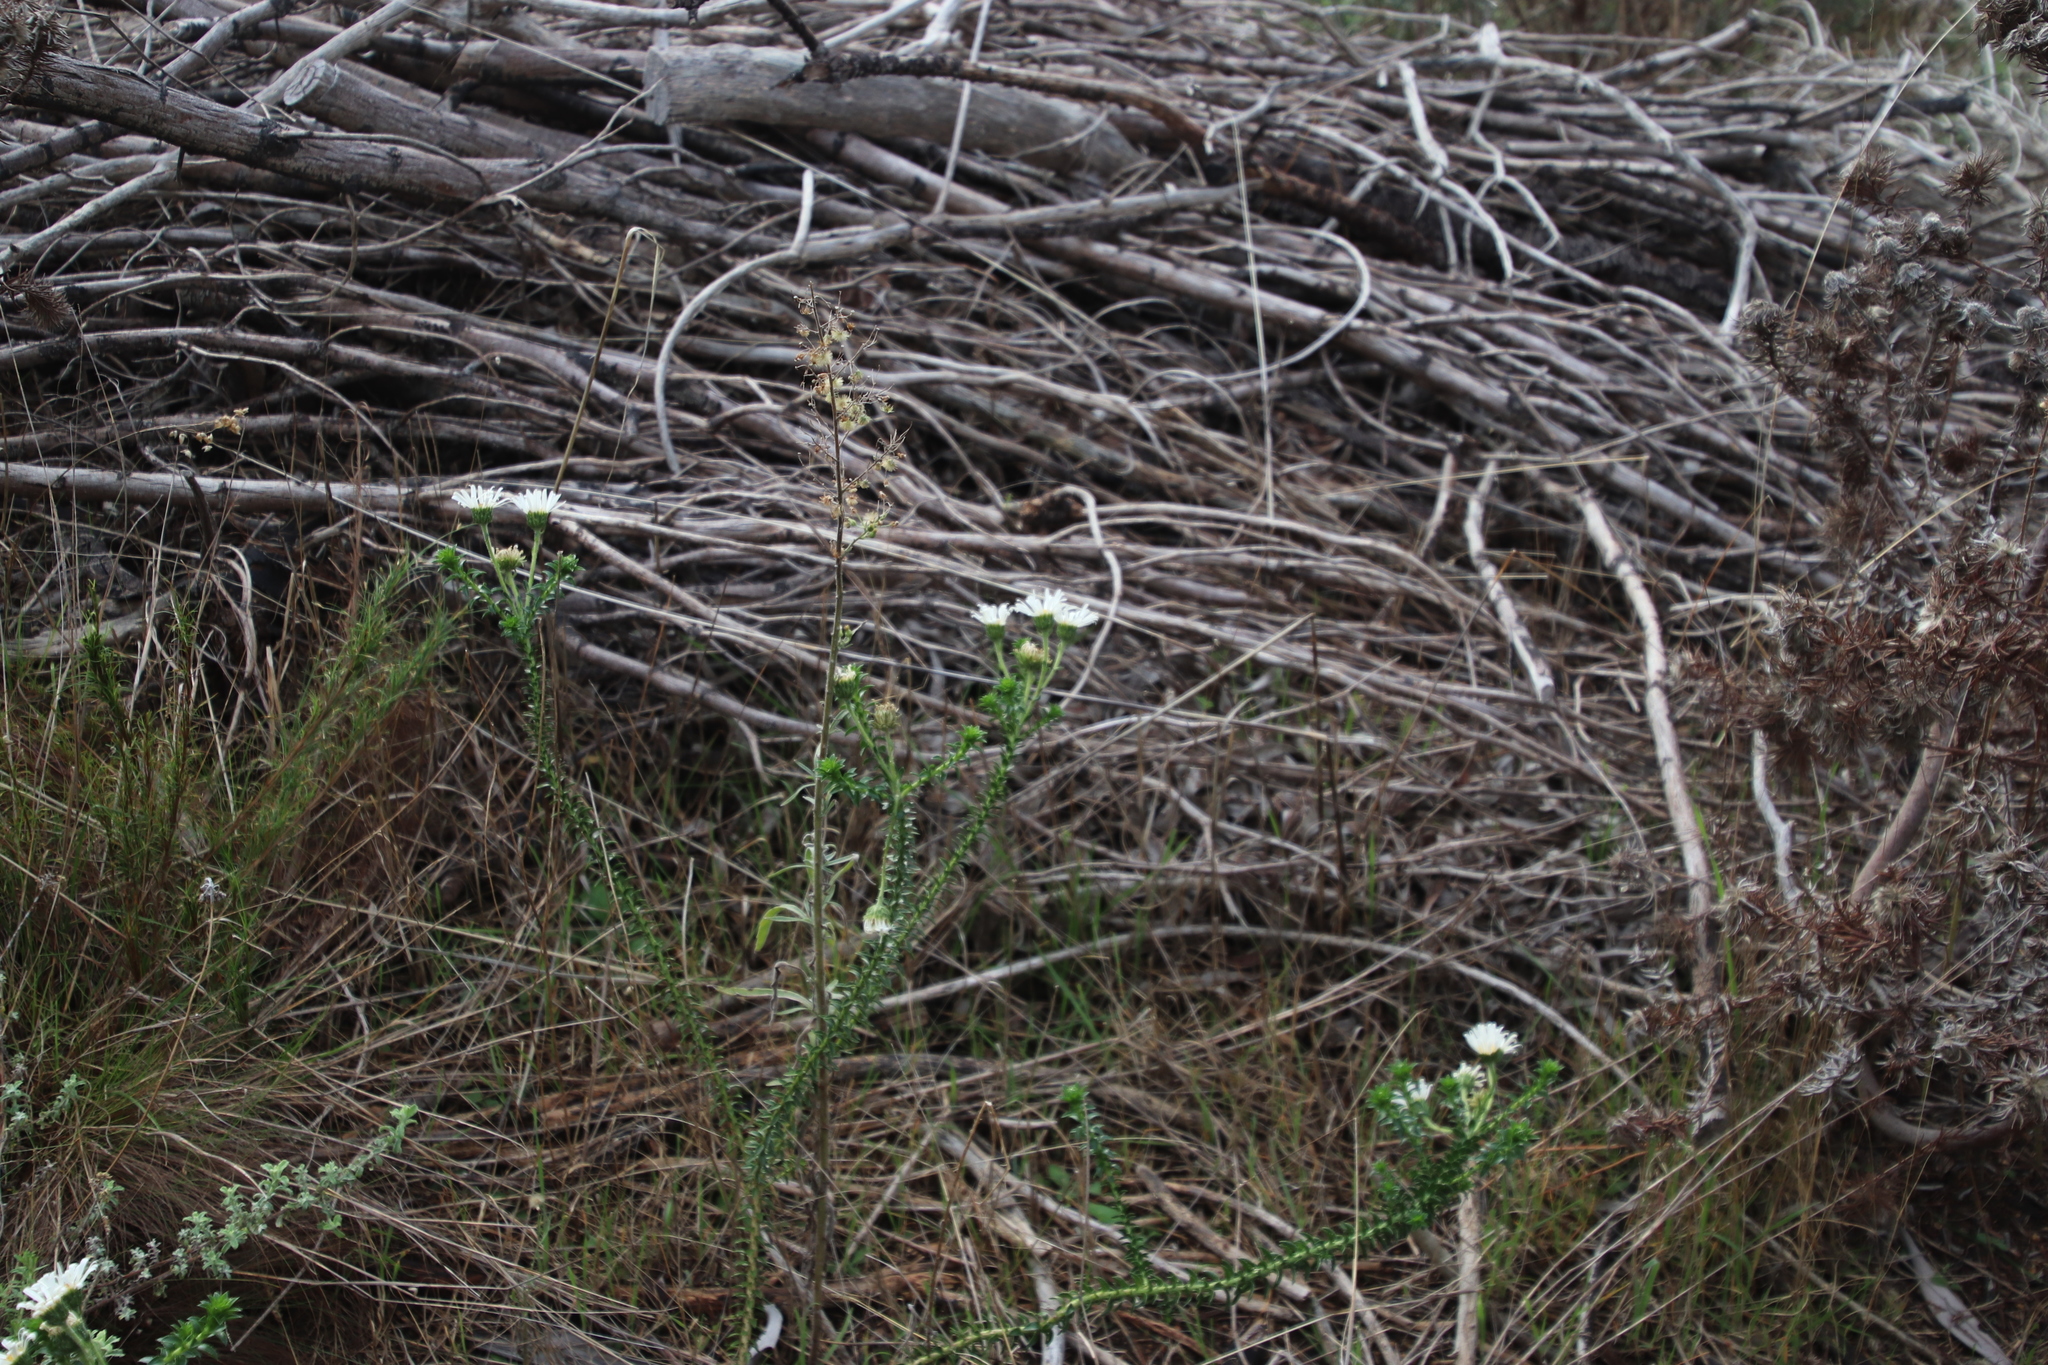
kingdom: Plantae
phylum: Tracheophyta
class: Magnoliopsida
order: Asterales
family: Asteraceae
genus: Felicia
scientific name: Felicia echinata
